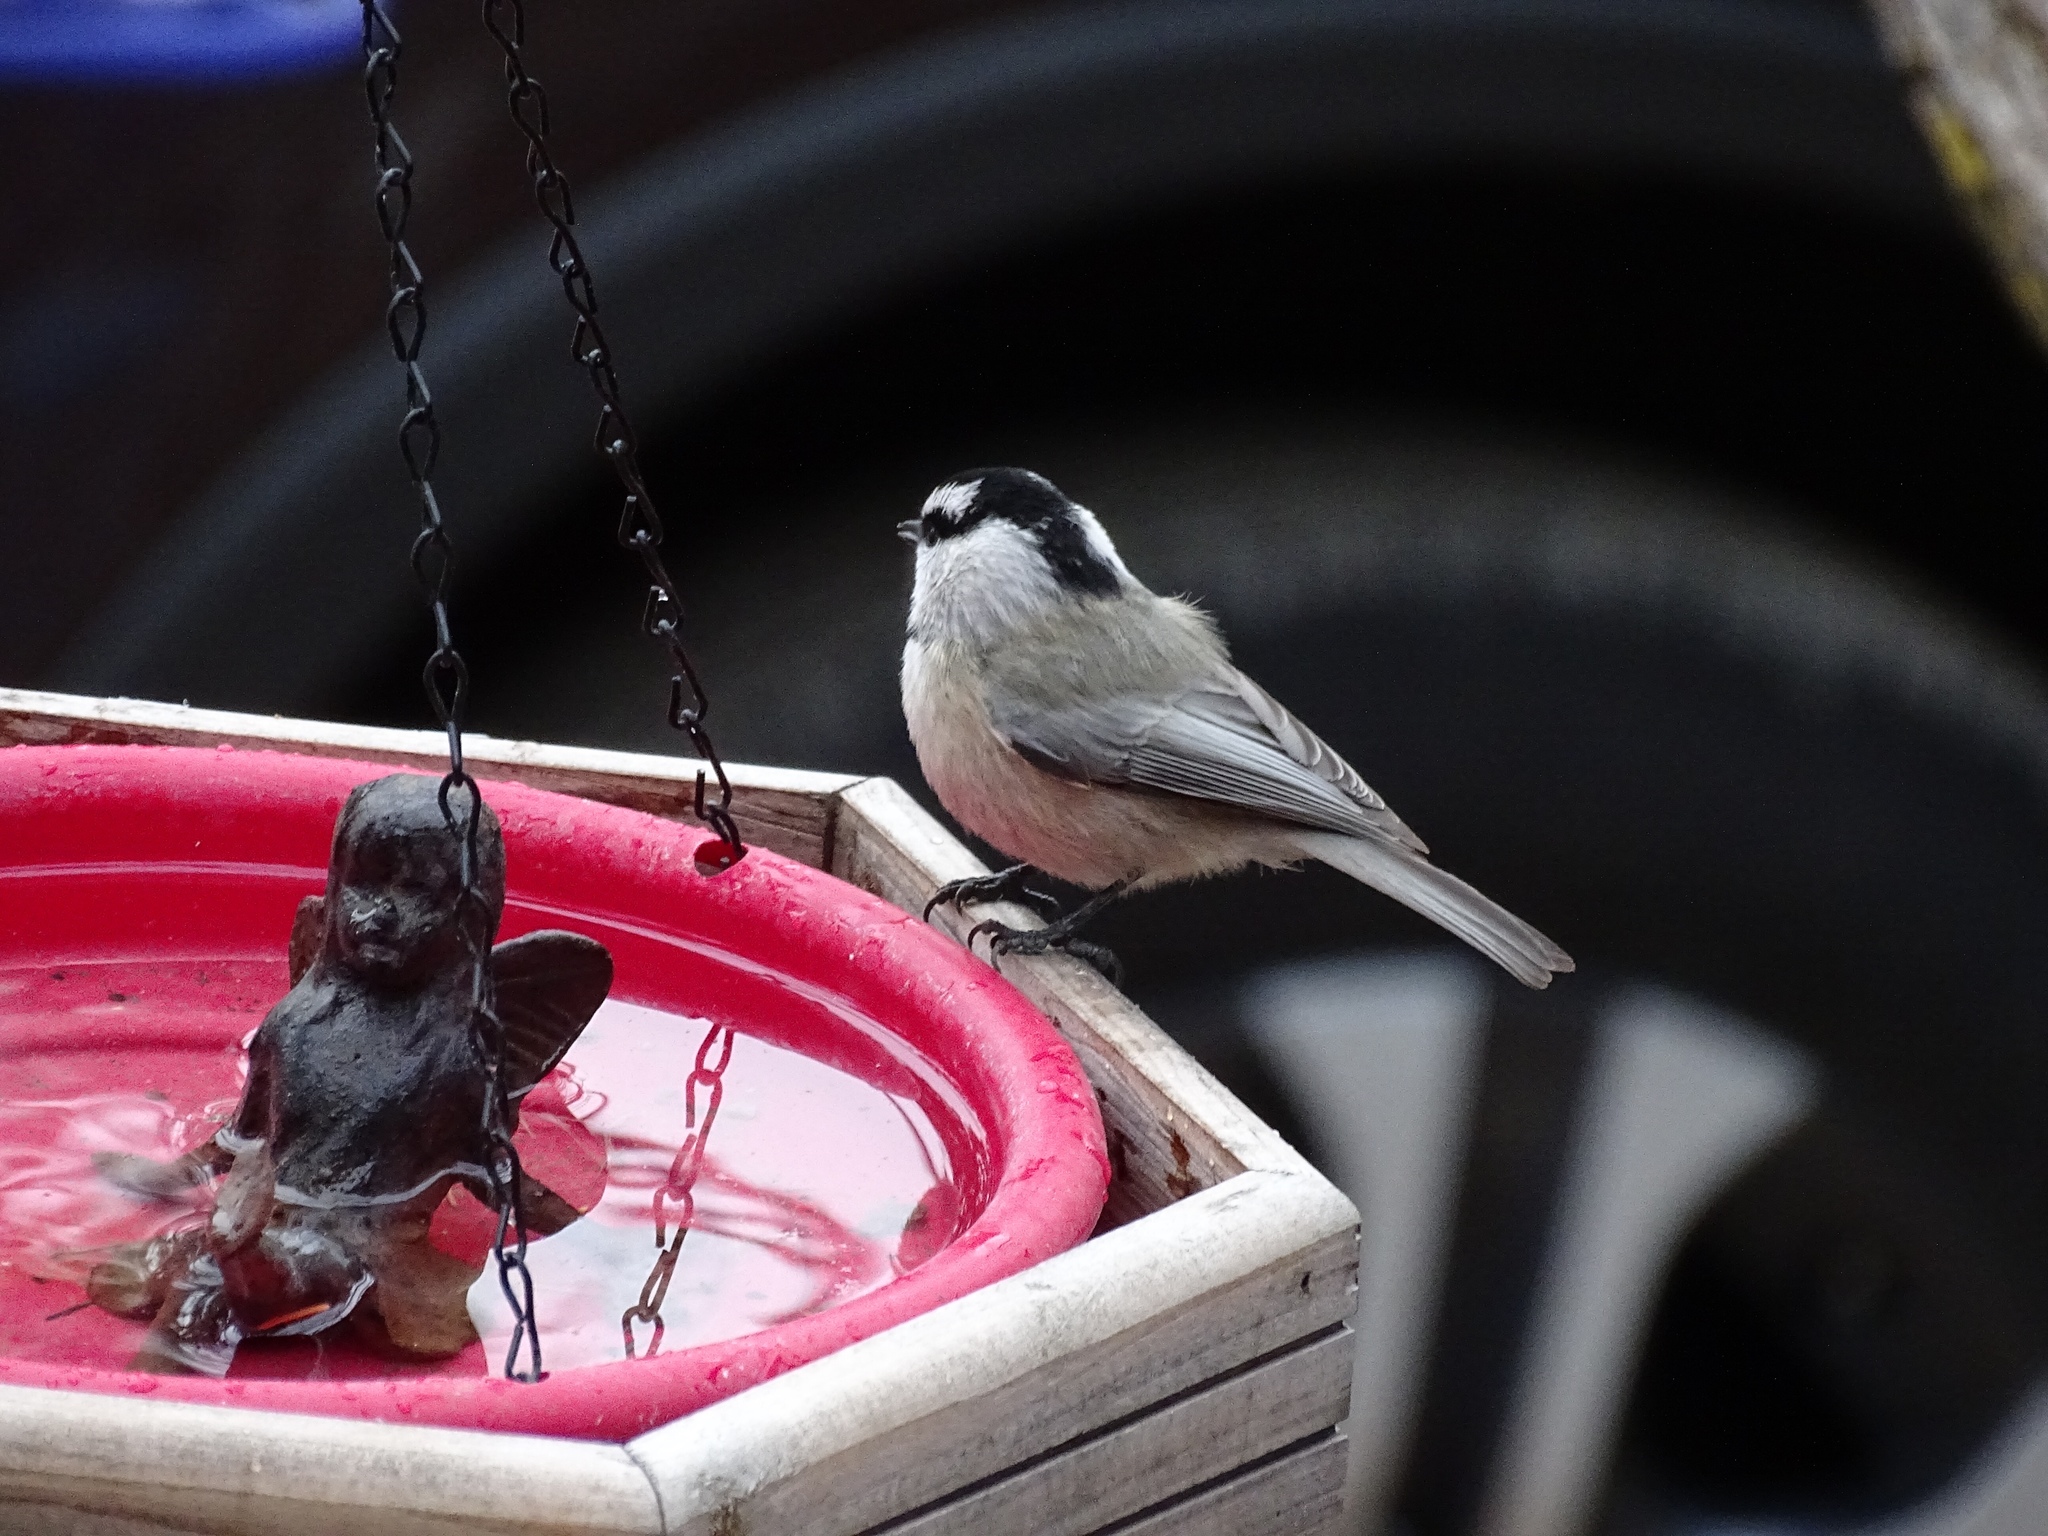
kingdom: Animalia
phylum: Chordata
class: Aves
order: Passeriformes
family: Paridae
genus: Poecile
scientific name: Poecile gambeli
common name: Mountain chickadee
